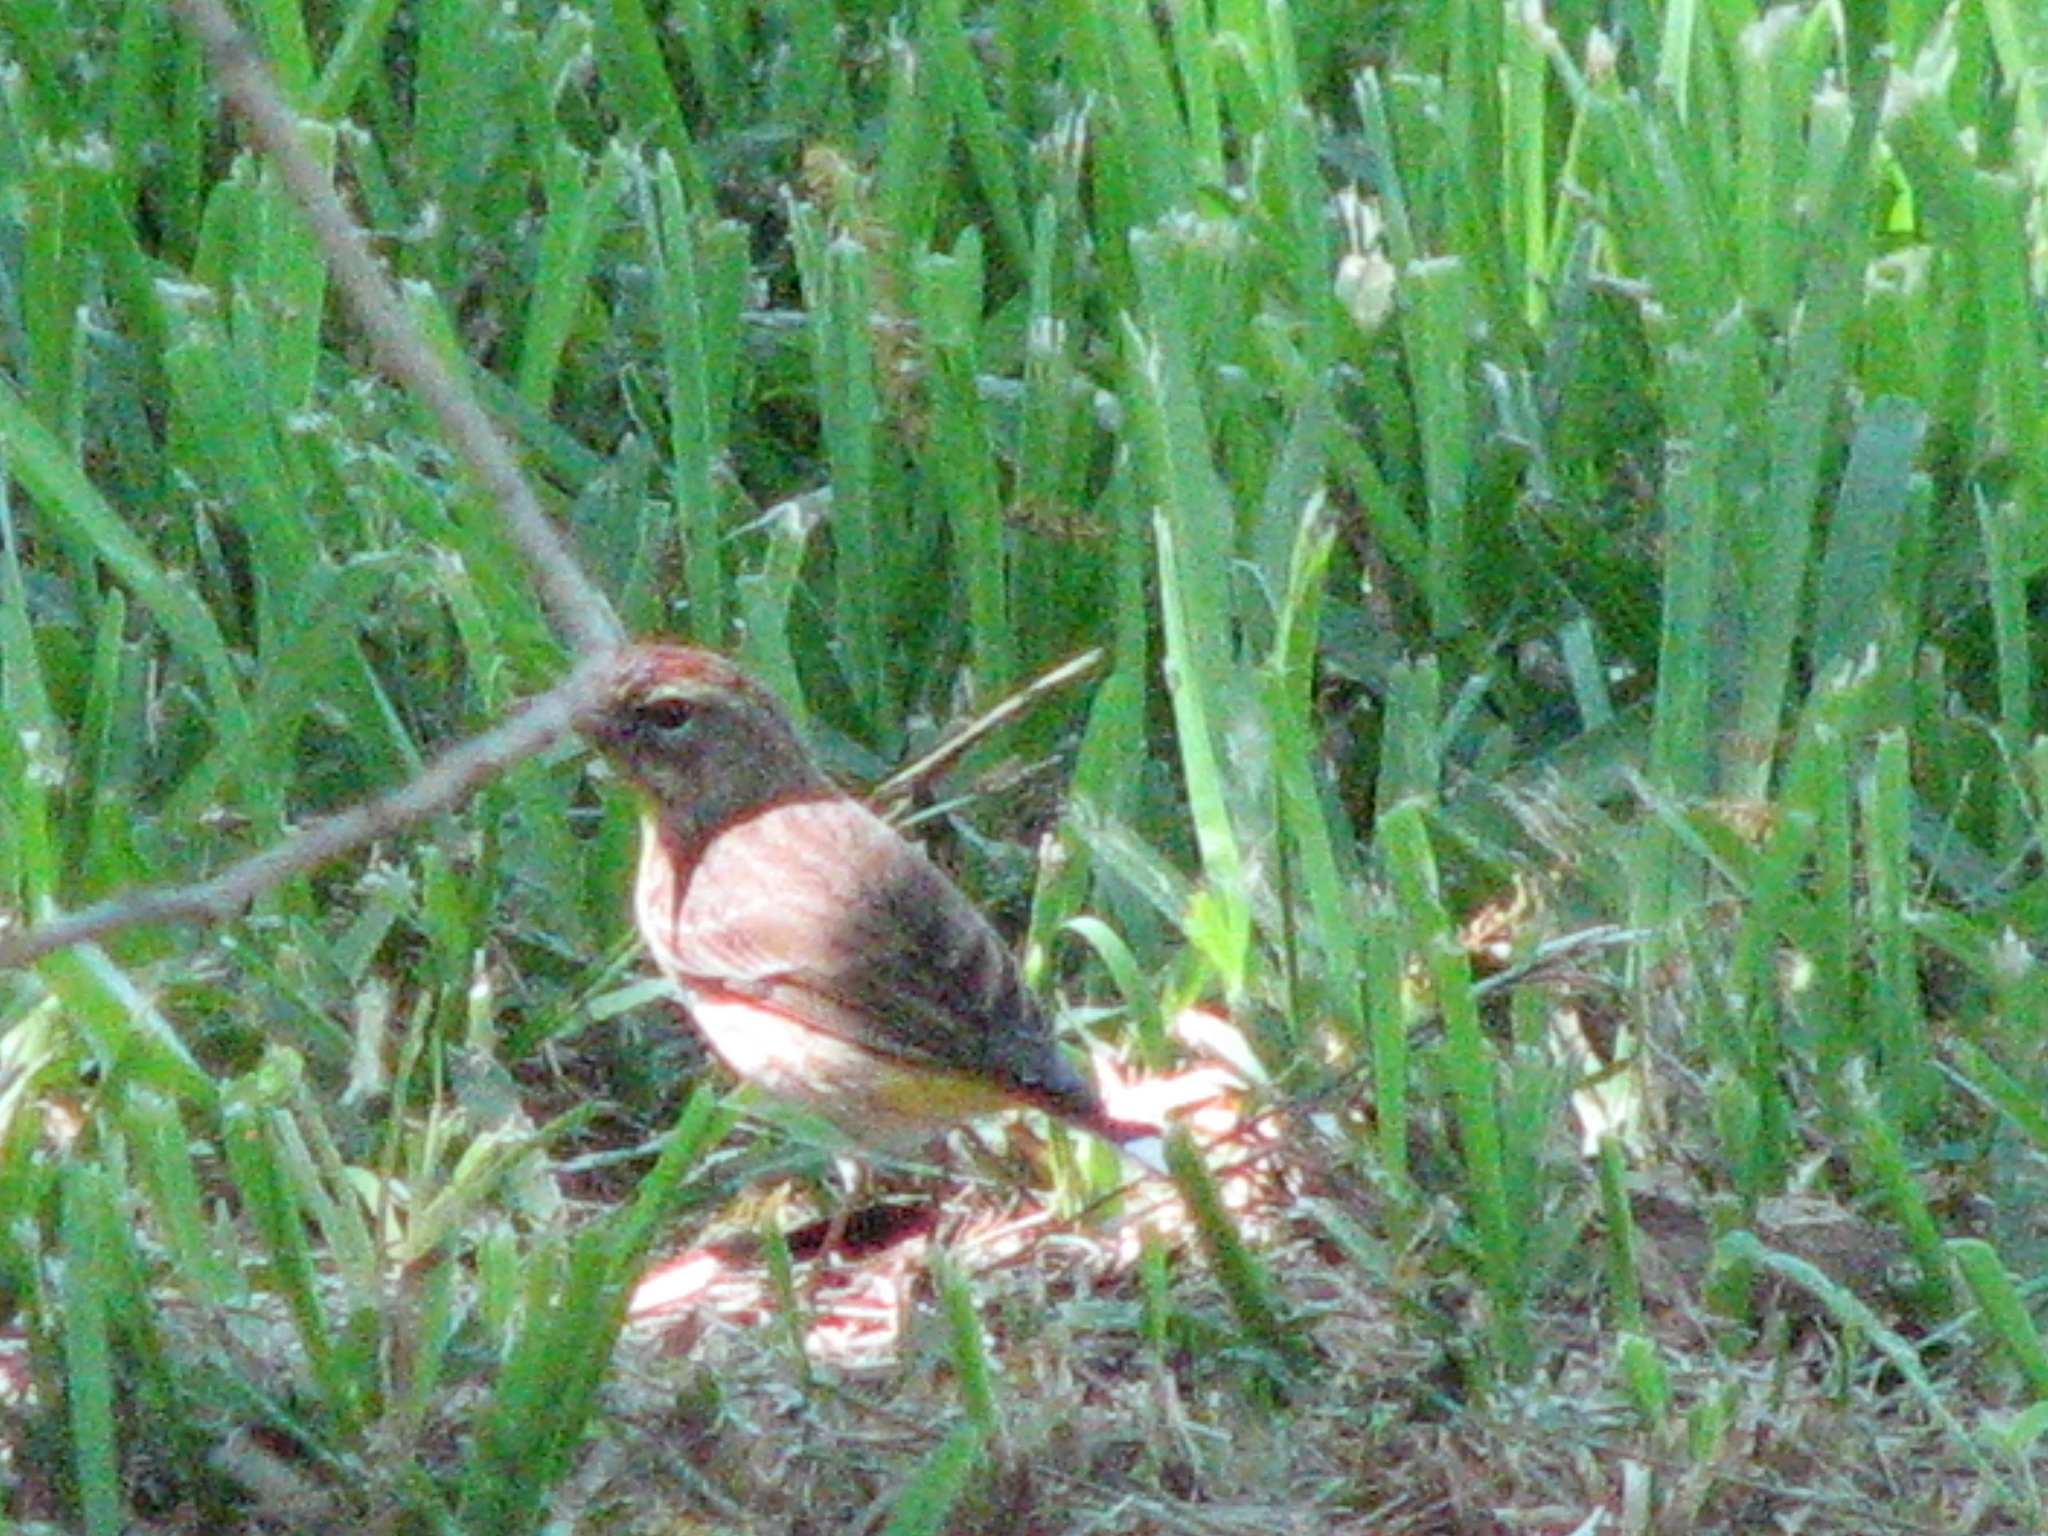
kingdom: Animalia
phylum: Chordata
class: Aves
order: Passeriformes
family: Parulidae
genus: Setophaga
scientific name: Setophaga palmarum
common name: Palm warbler
